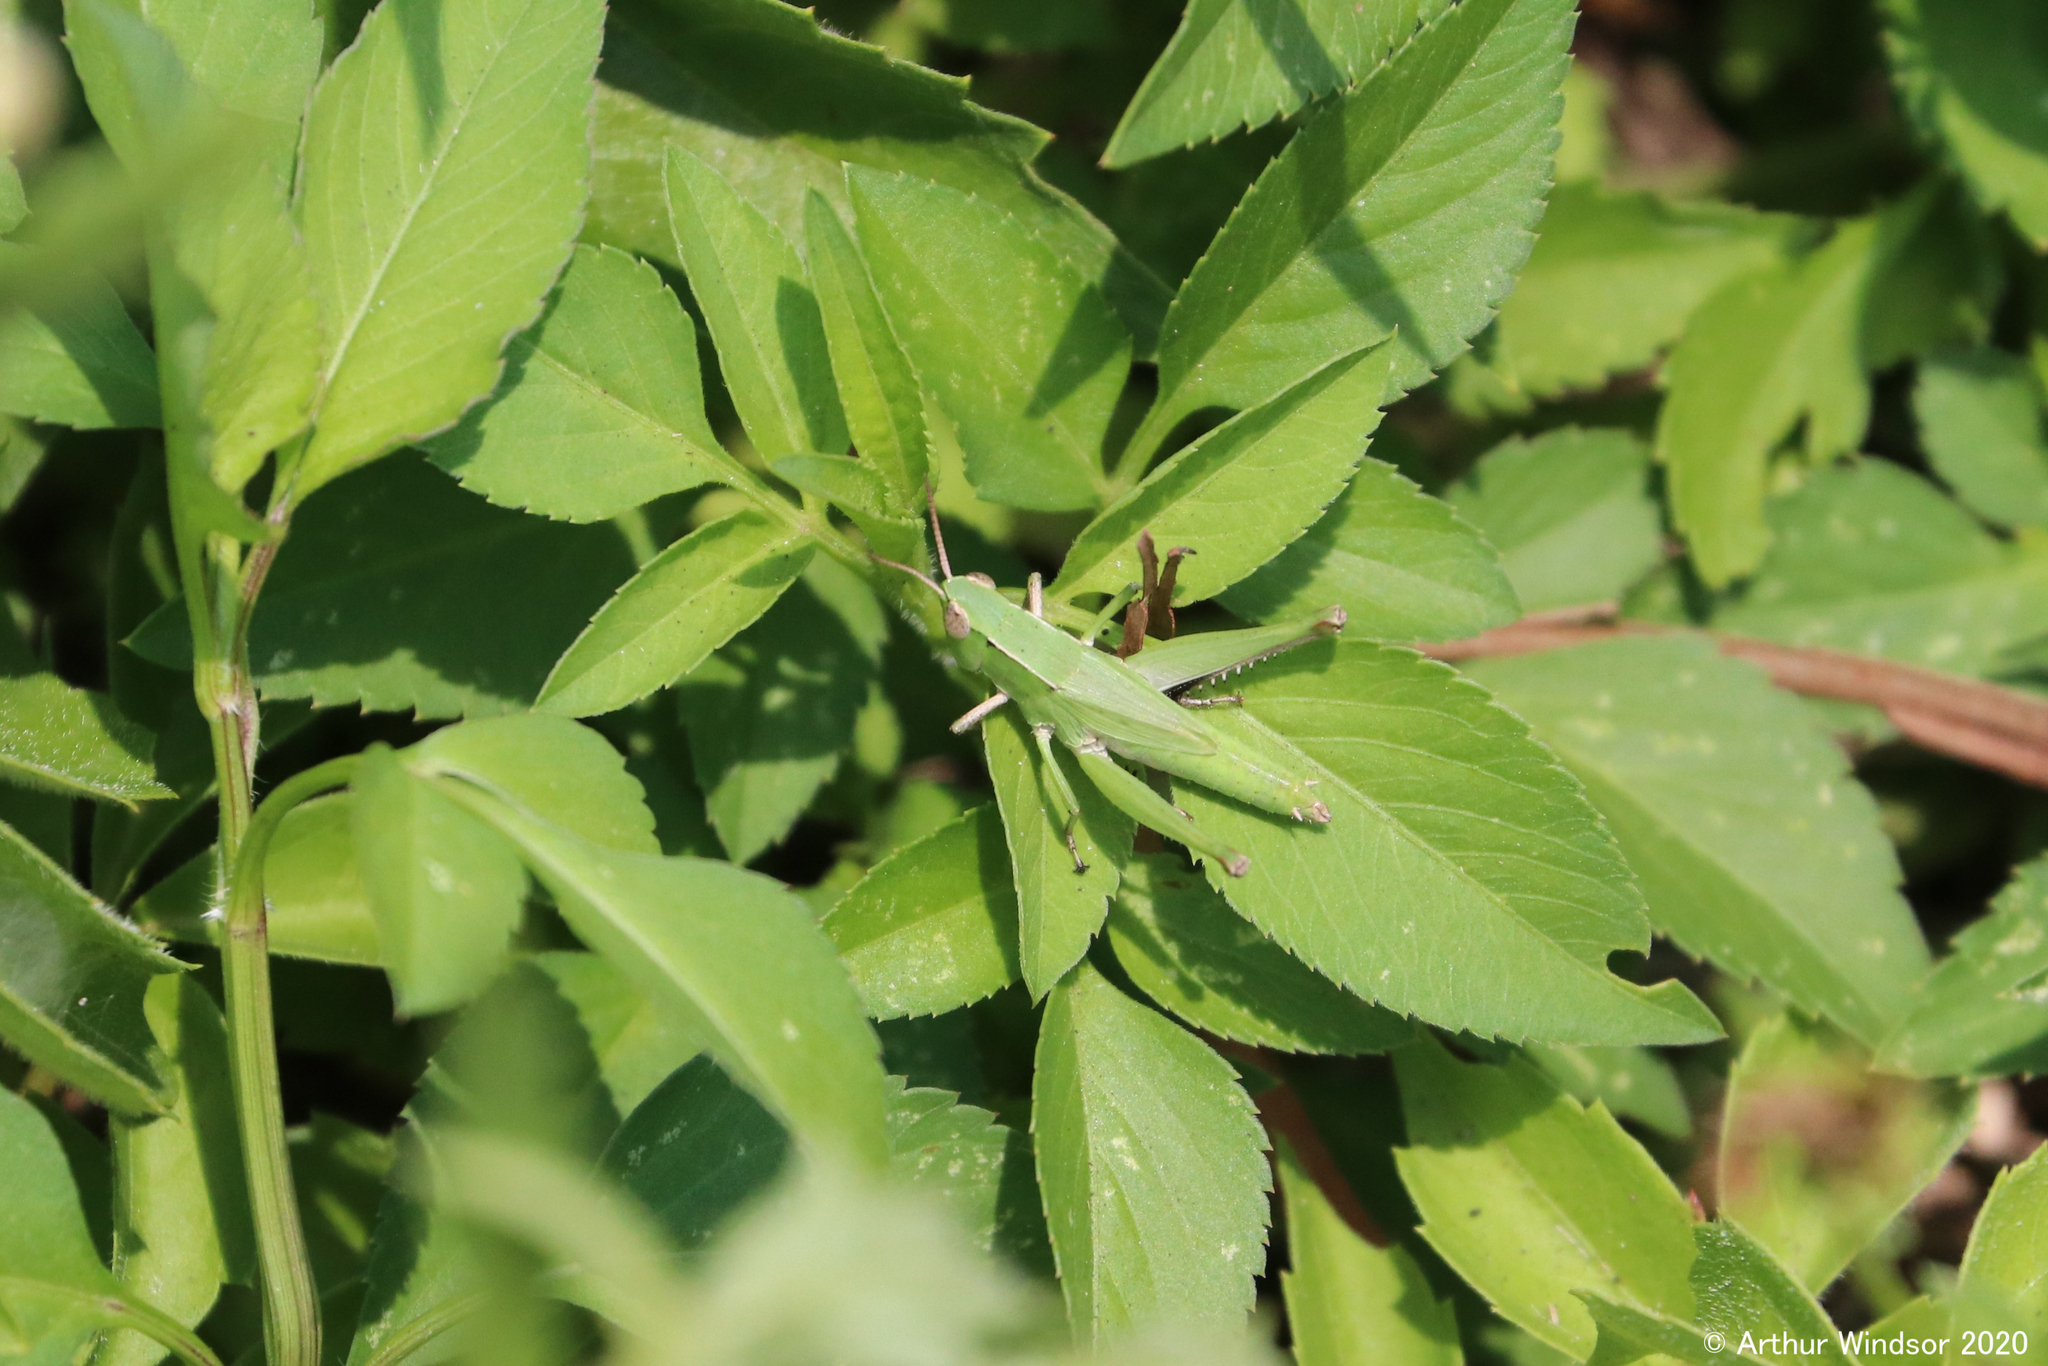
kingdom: Animalia
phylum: Arthropoda
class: Insecta
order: Orthoptera
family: Acrididae
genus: Dichromorpha
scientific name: Dichromorpha viridis
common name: Short-winged green grasshopper
